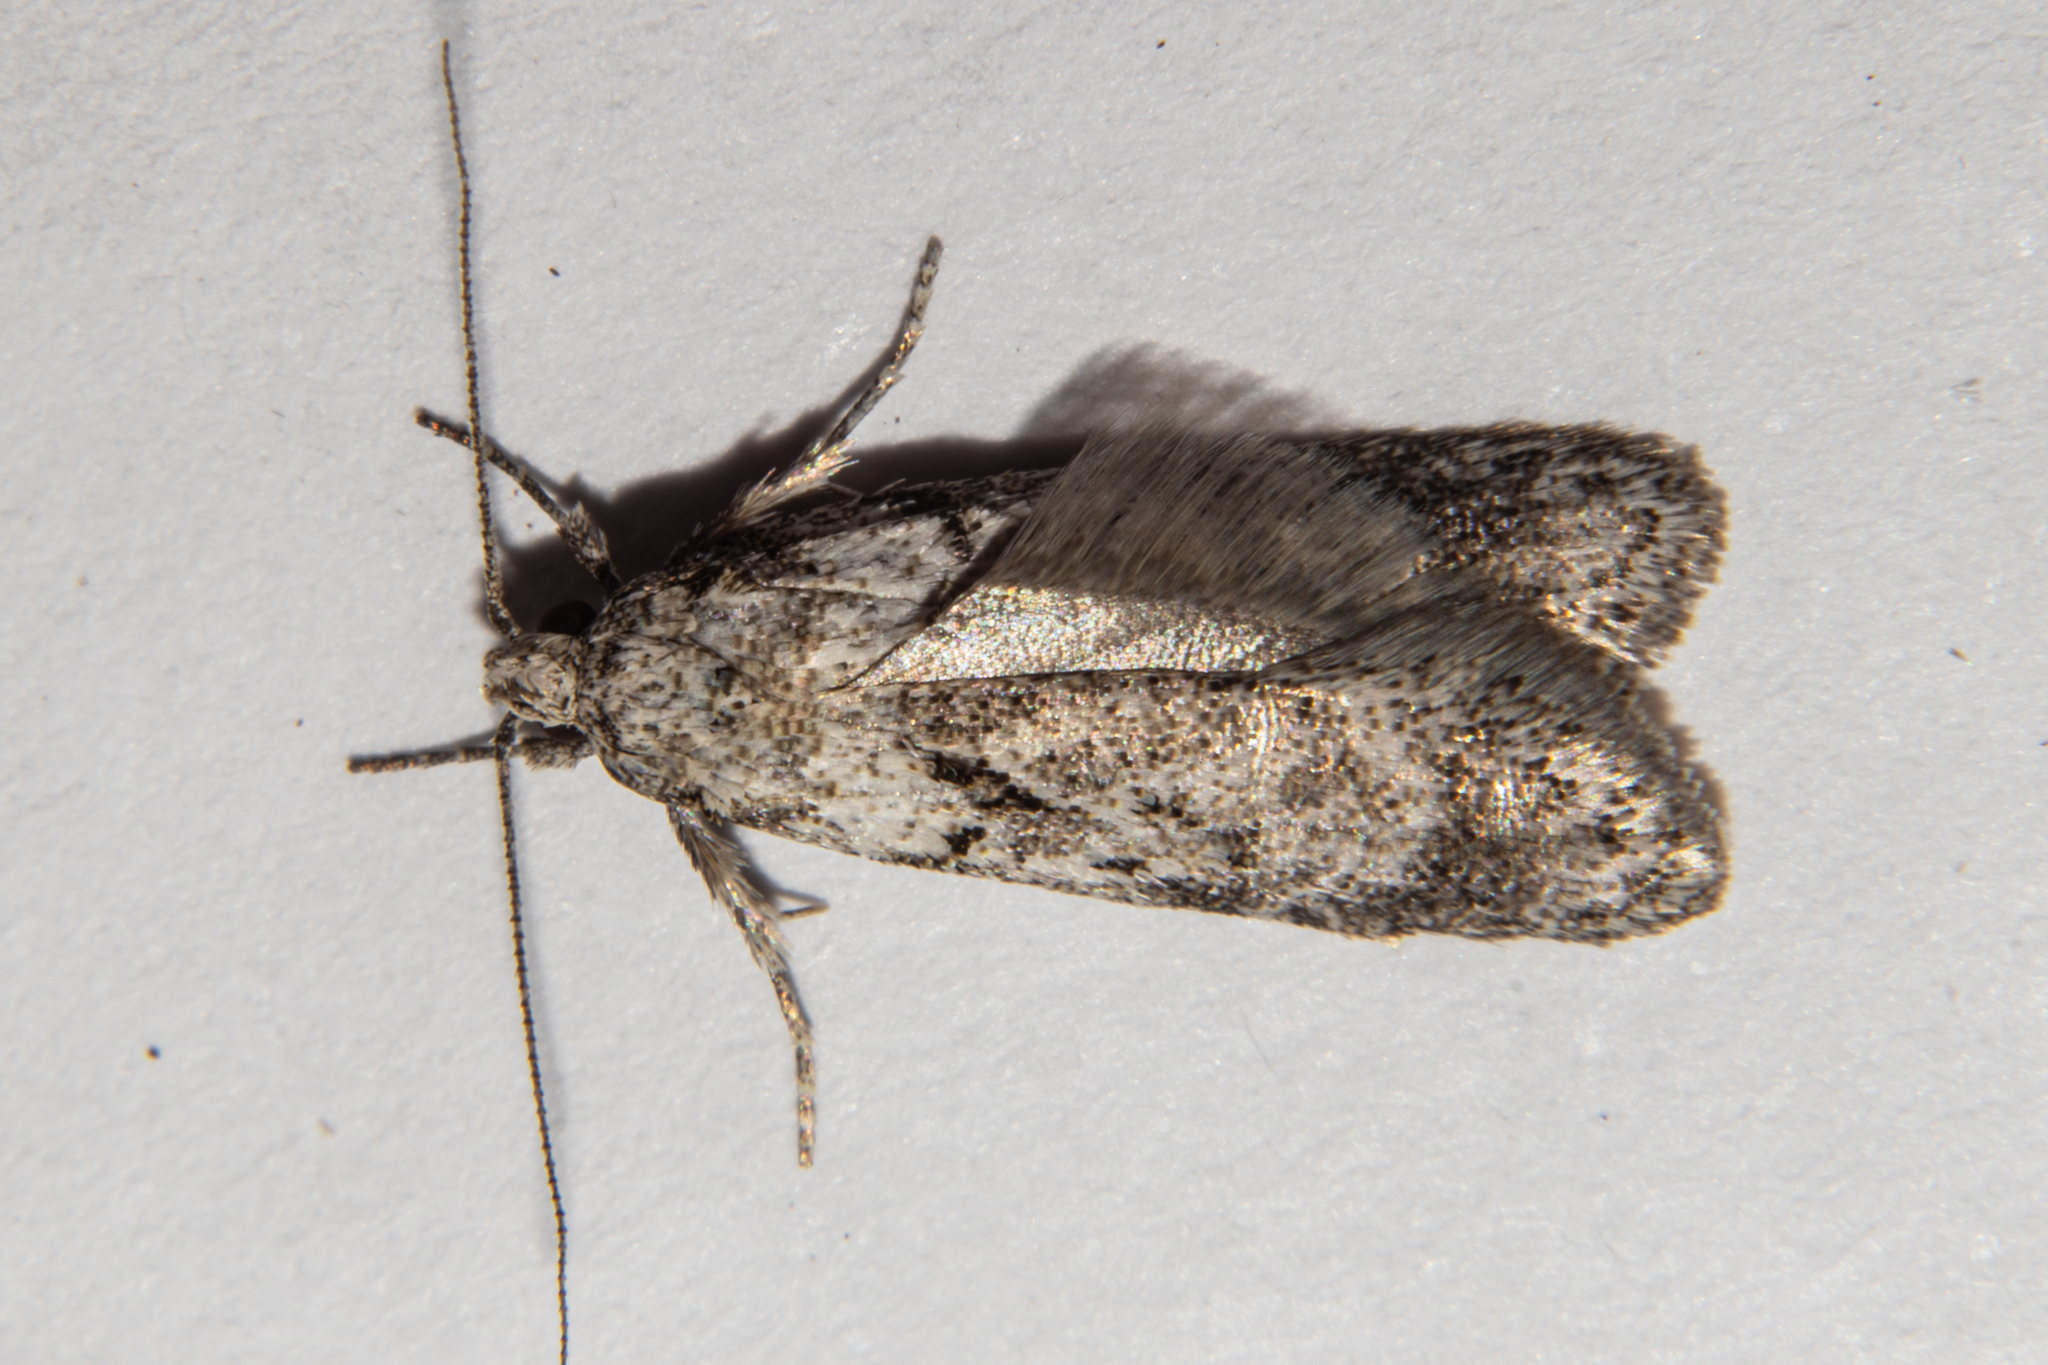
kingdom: Animalia
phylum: Arthropoda
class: Insecta
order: Lepidoptera
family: Oecophoridae
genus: Izatha
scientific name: Izatha convulsella
